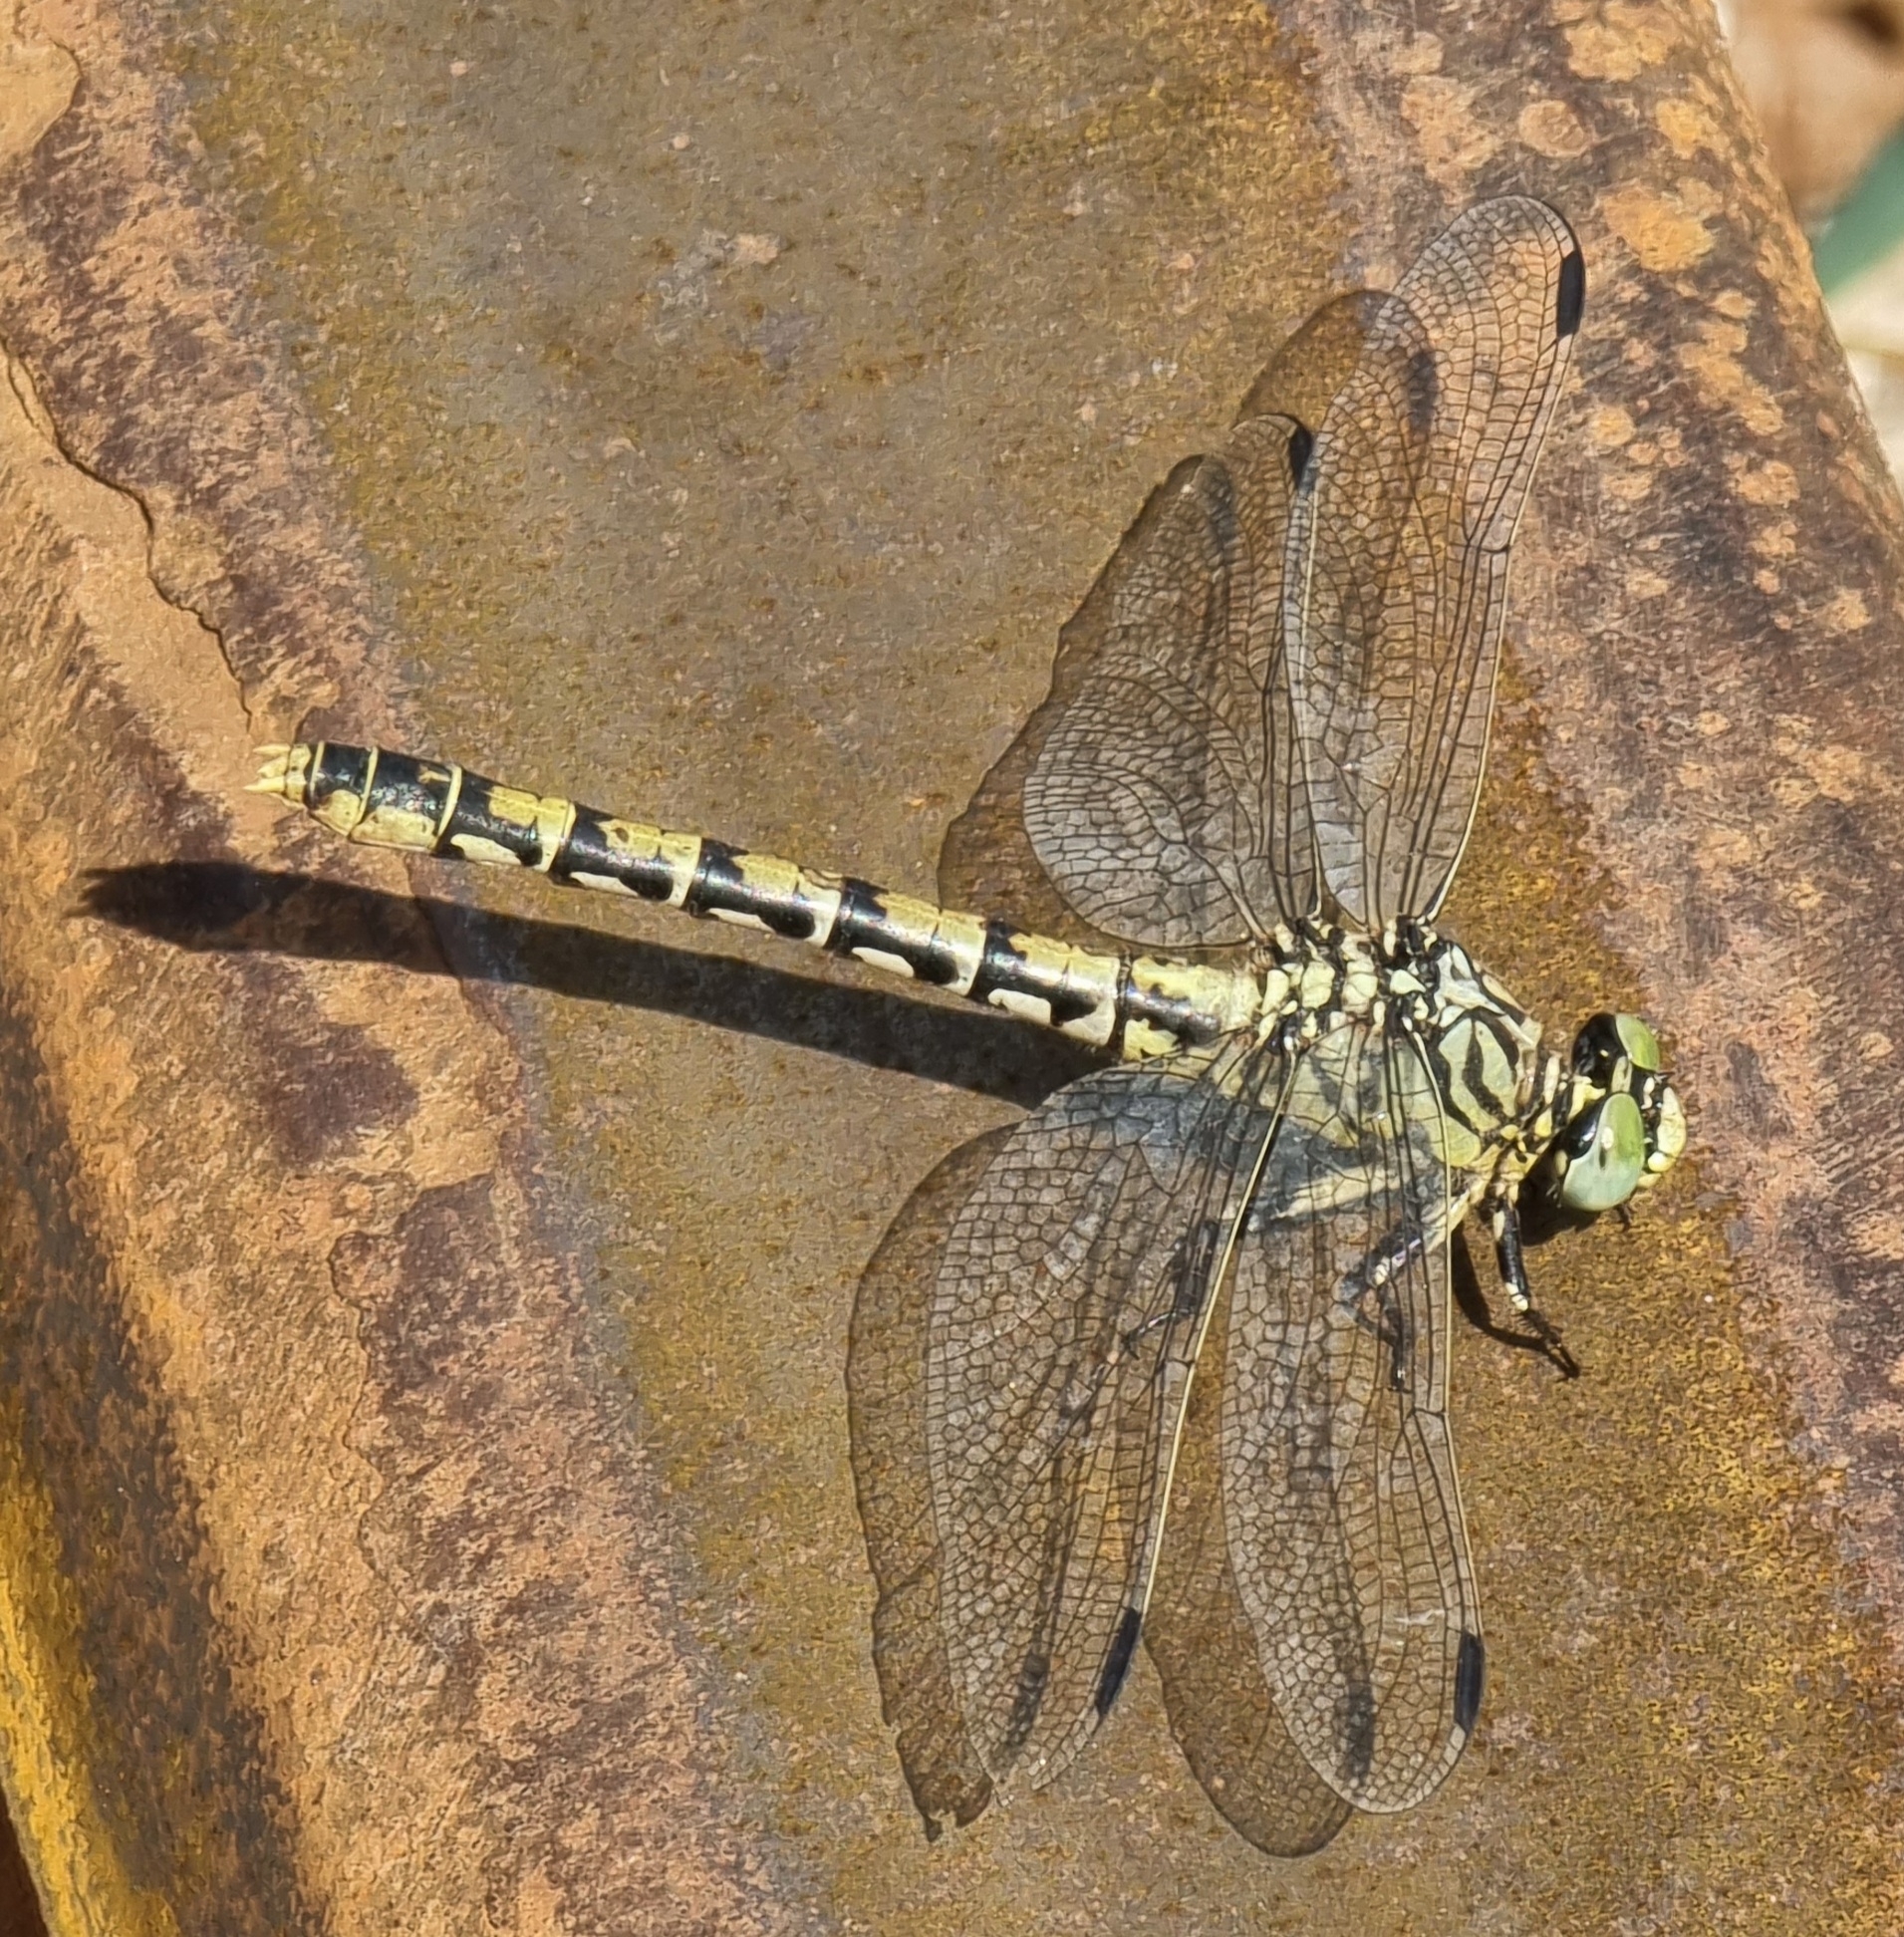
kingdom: Animalia
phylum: Arthropoda
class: Insecta
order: Odonata
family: Gomphidae
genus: Onychogomphus
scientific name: Onychogomphus forcipatus
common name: Small pincertail
